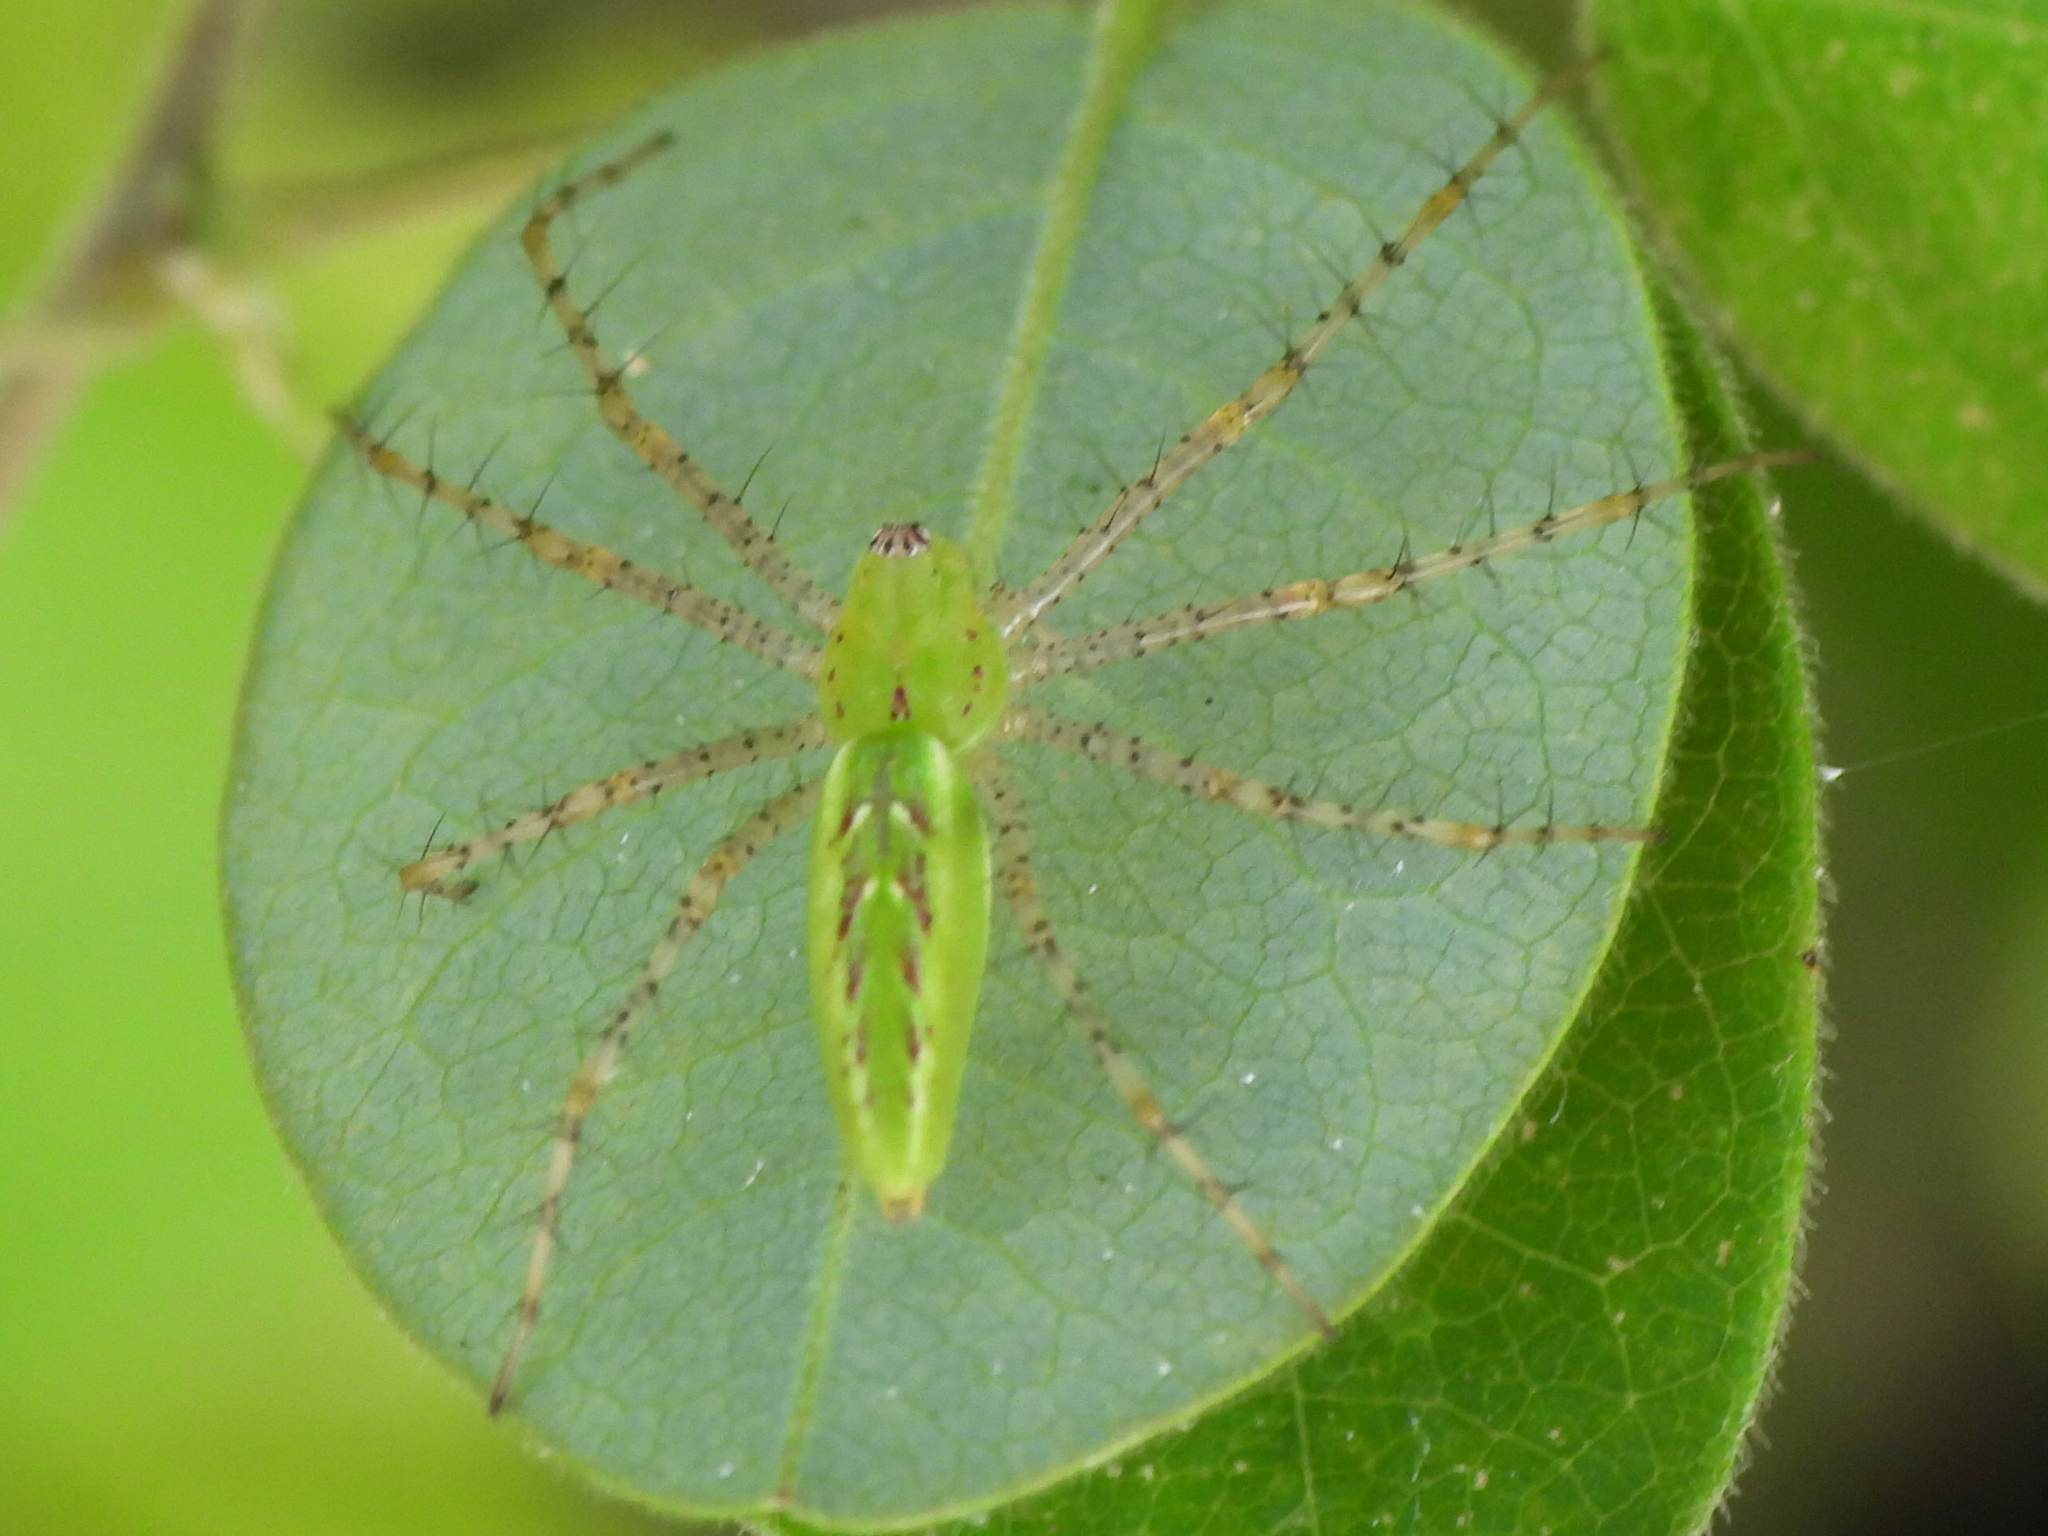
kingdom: Animalia
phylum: Arthropoda
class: Arachnida
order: Araneae
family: Oxyopidae
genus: Peucetia
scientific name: Peucetia viridans
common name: Lynx spiders
